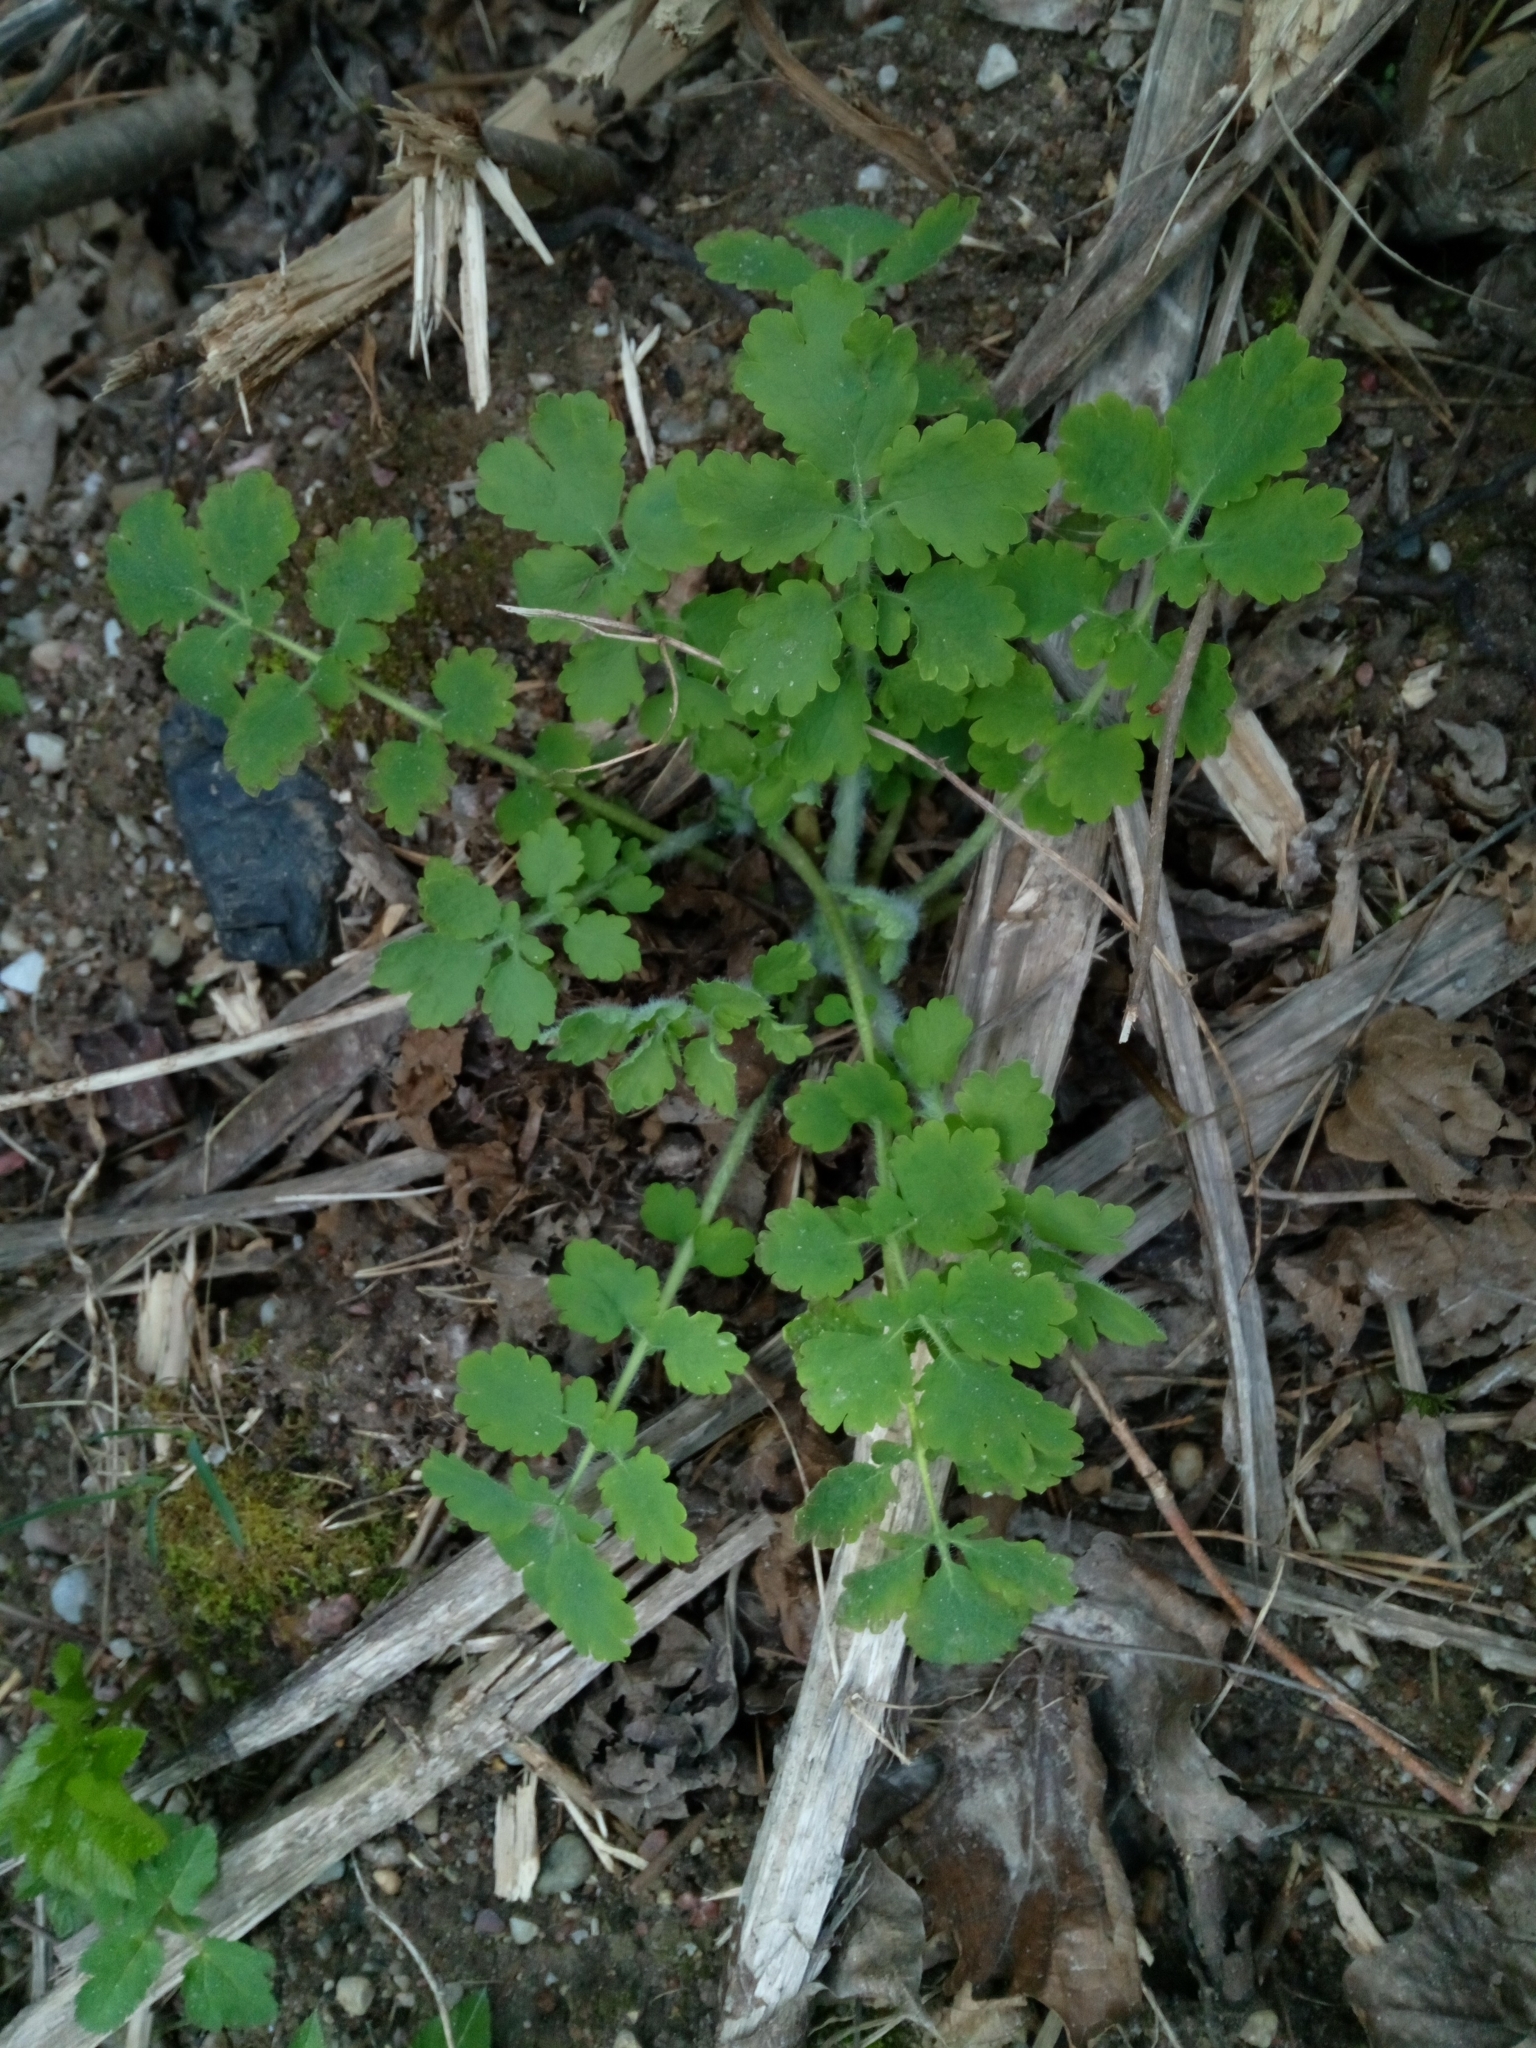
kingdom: Plantae
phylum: Tracheophyta
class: Magnoliopsida
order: Ranunculales
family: Papaveraceae
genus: Chelidonium
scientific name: Chelidonium majus
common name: Greater celandine
